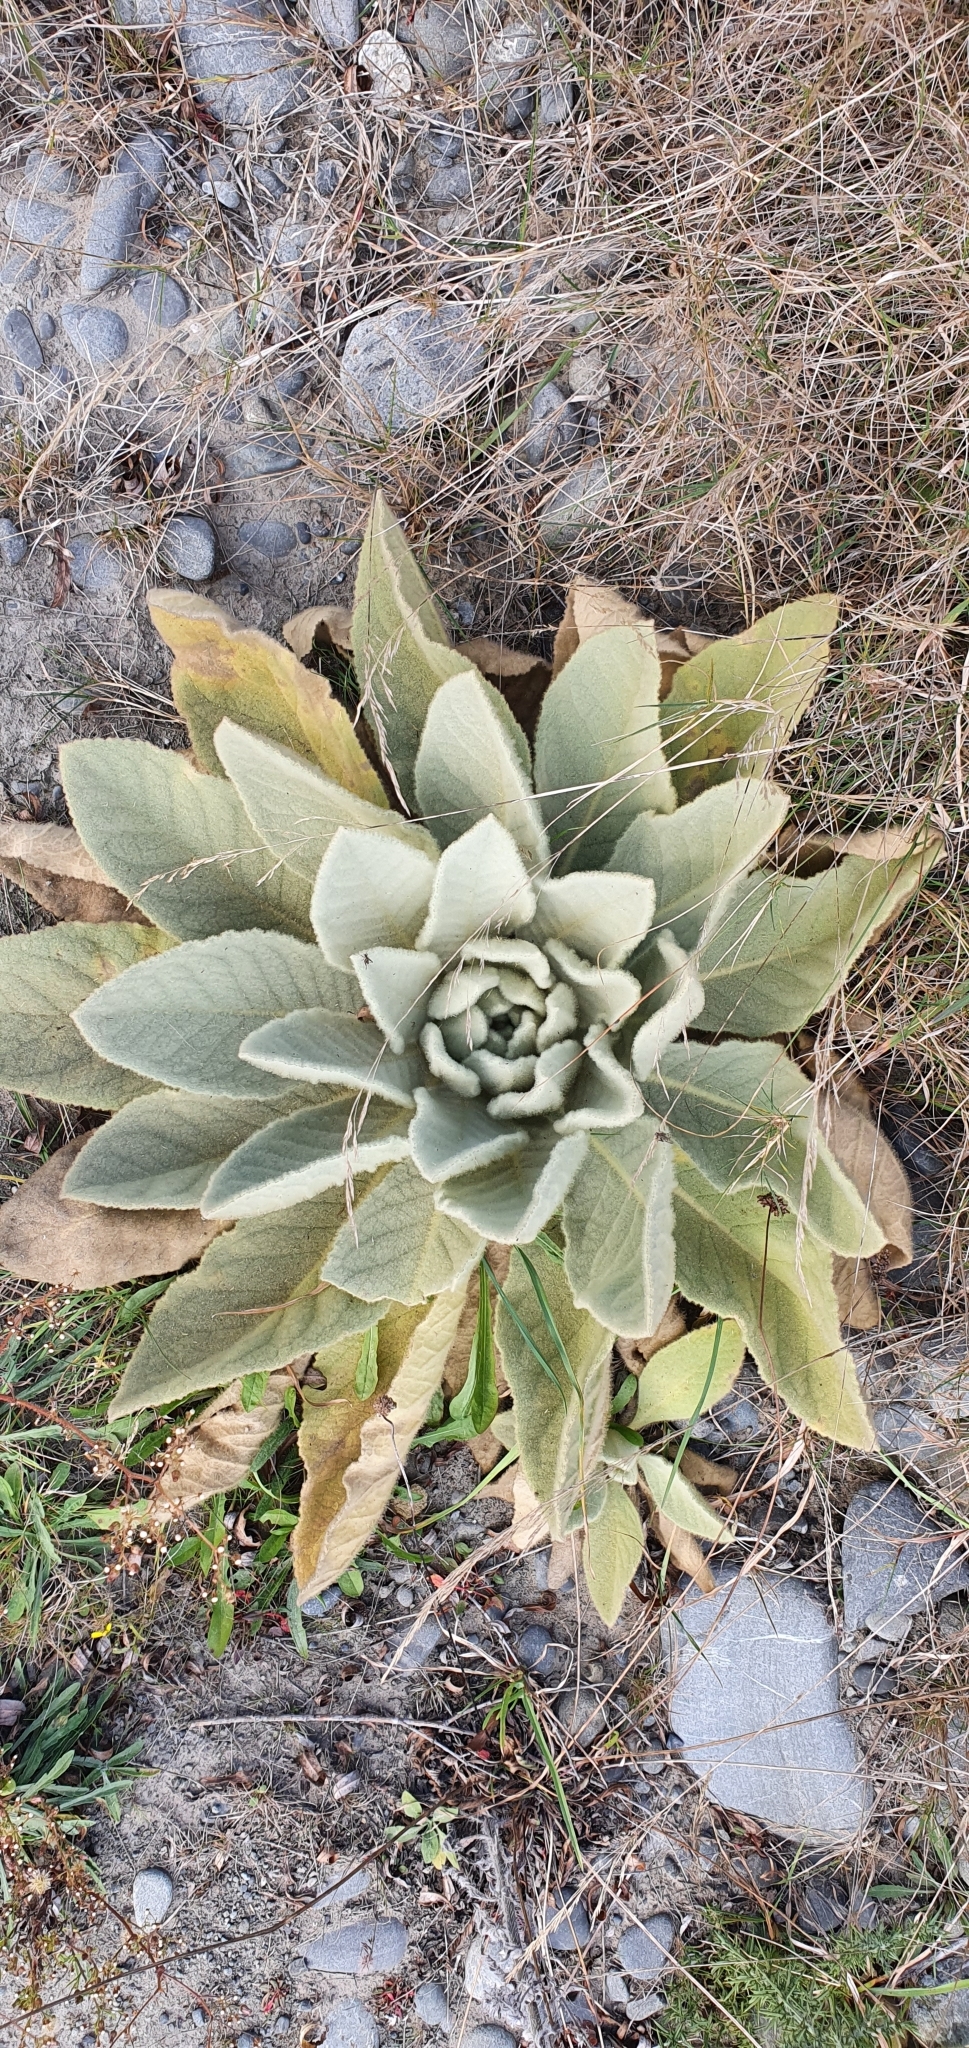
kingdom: Plantae
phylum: Tracheophyta
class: Magnoliopsida
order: Lamiales
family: Scrophulariaceae
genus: Verbascum
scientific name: Verbascum thapsus
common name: Common mullein
